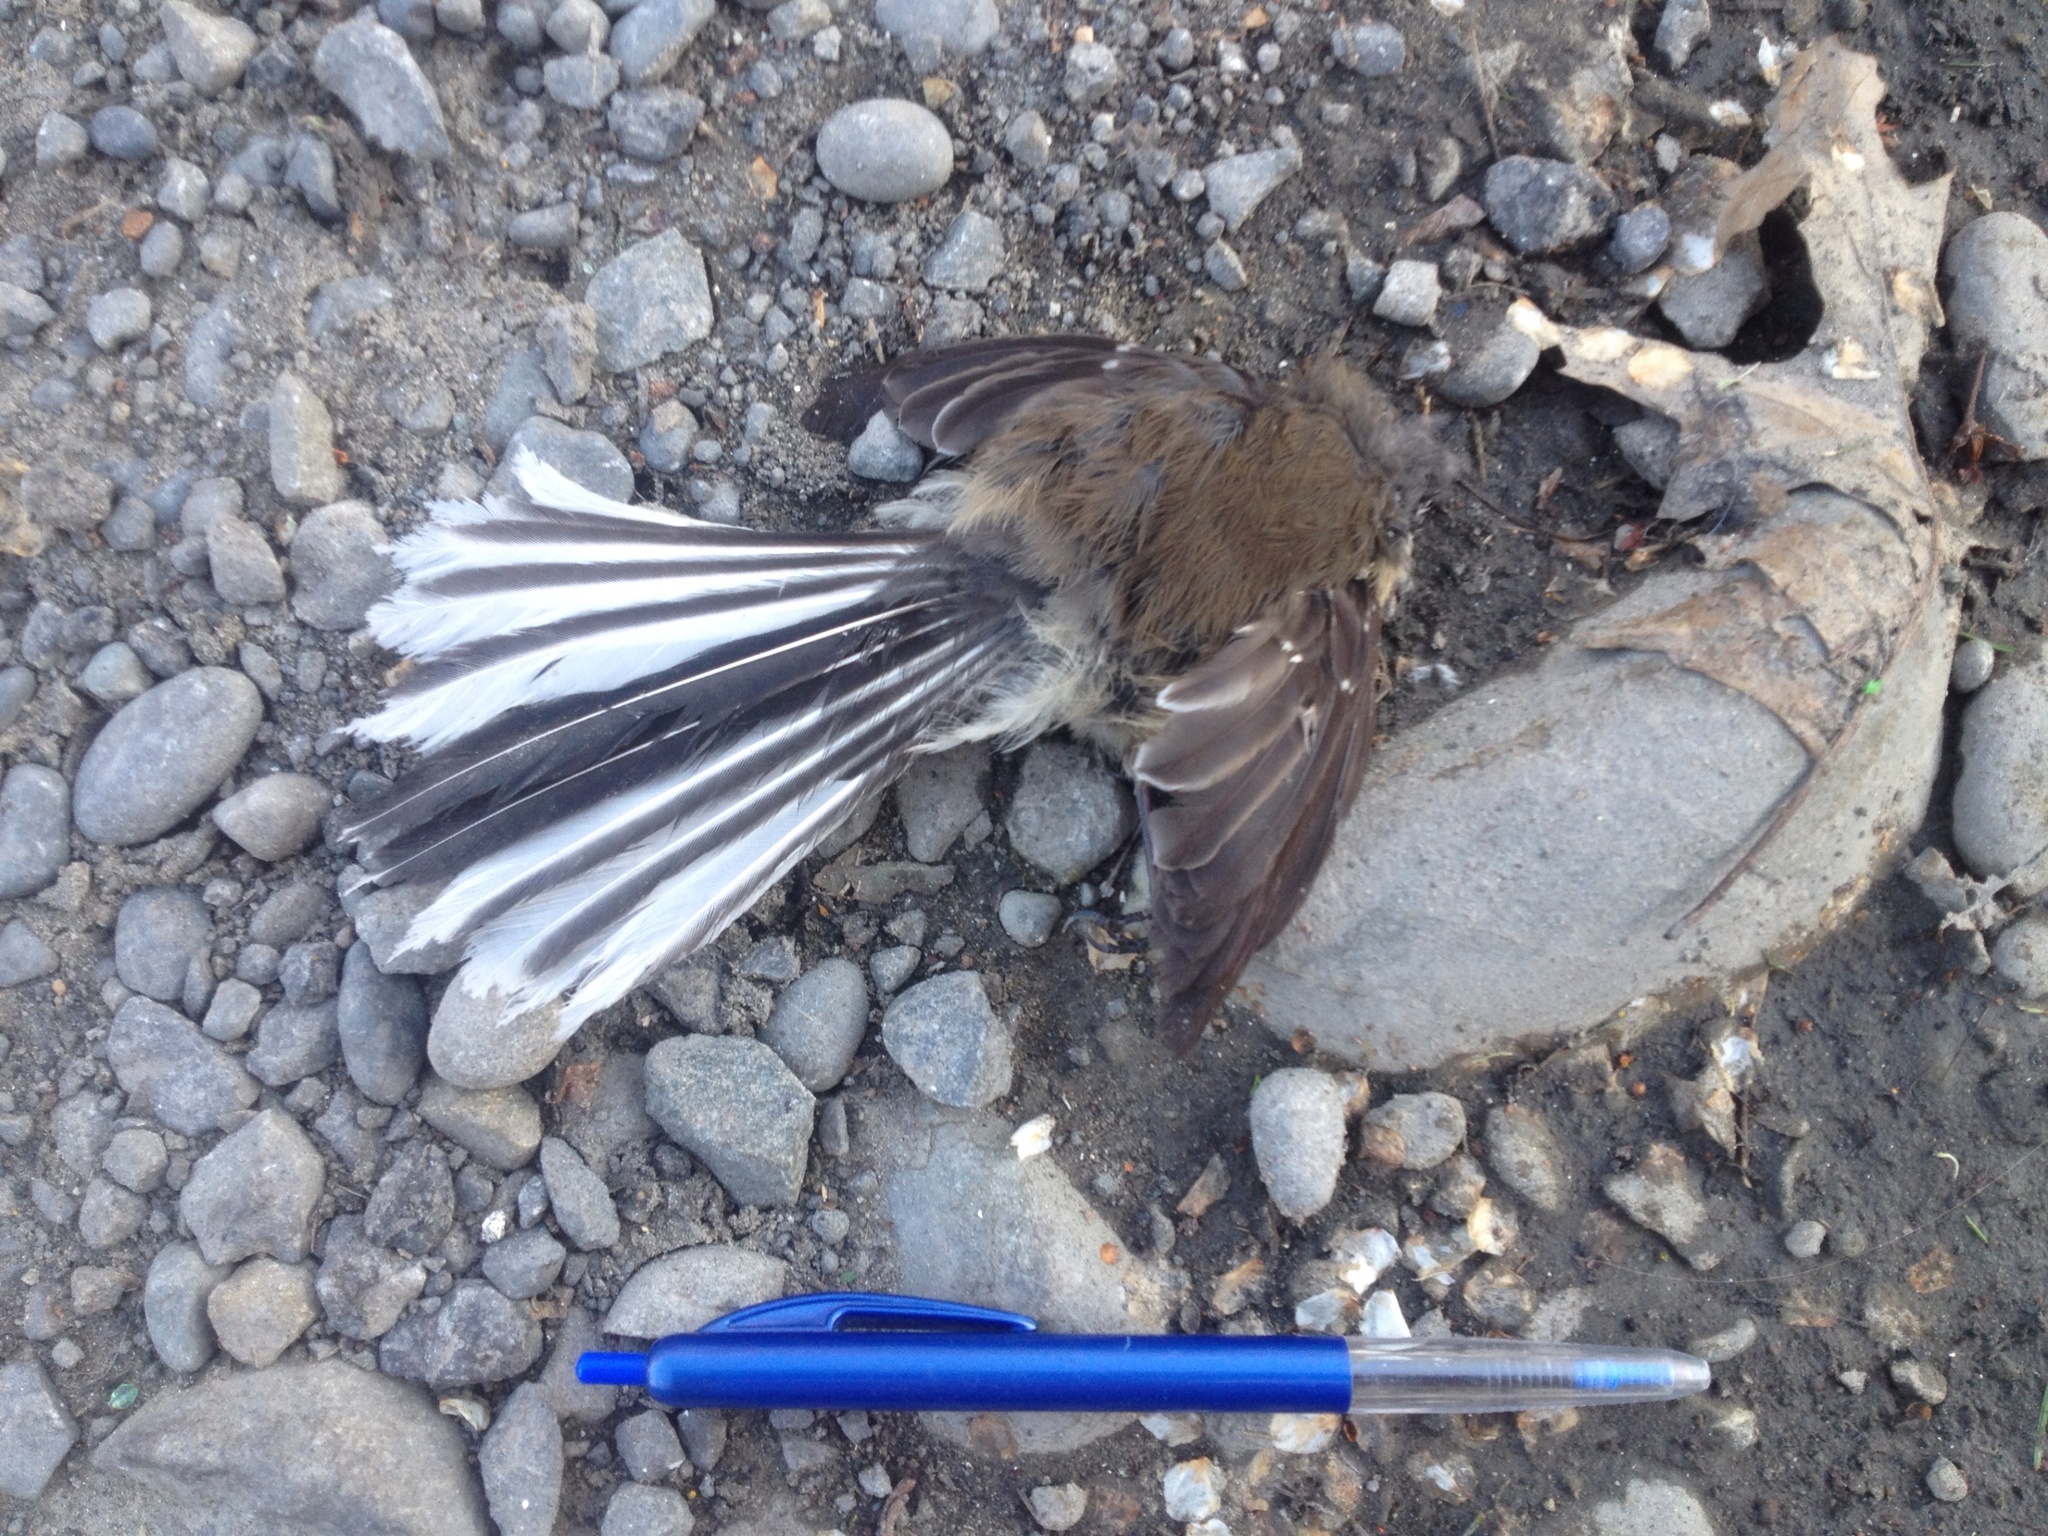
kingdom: Animalia
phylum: Chordata
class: Aves
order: Passeriformes
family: Rhipiduridae
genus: Rhipidura
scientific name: Rhipidura fuliginosa
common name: New zealand fantail
